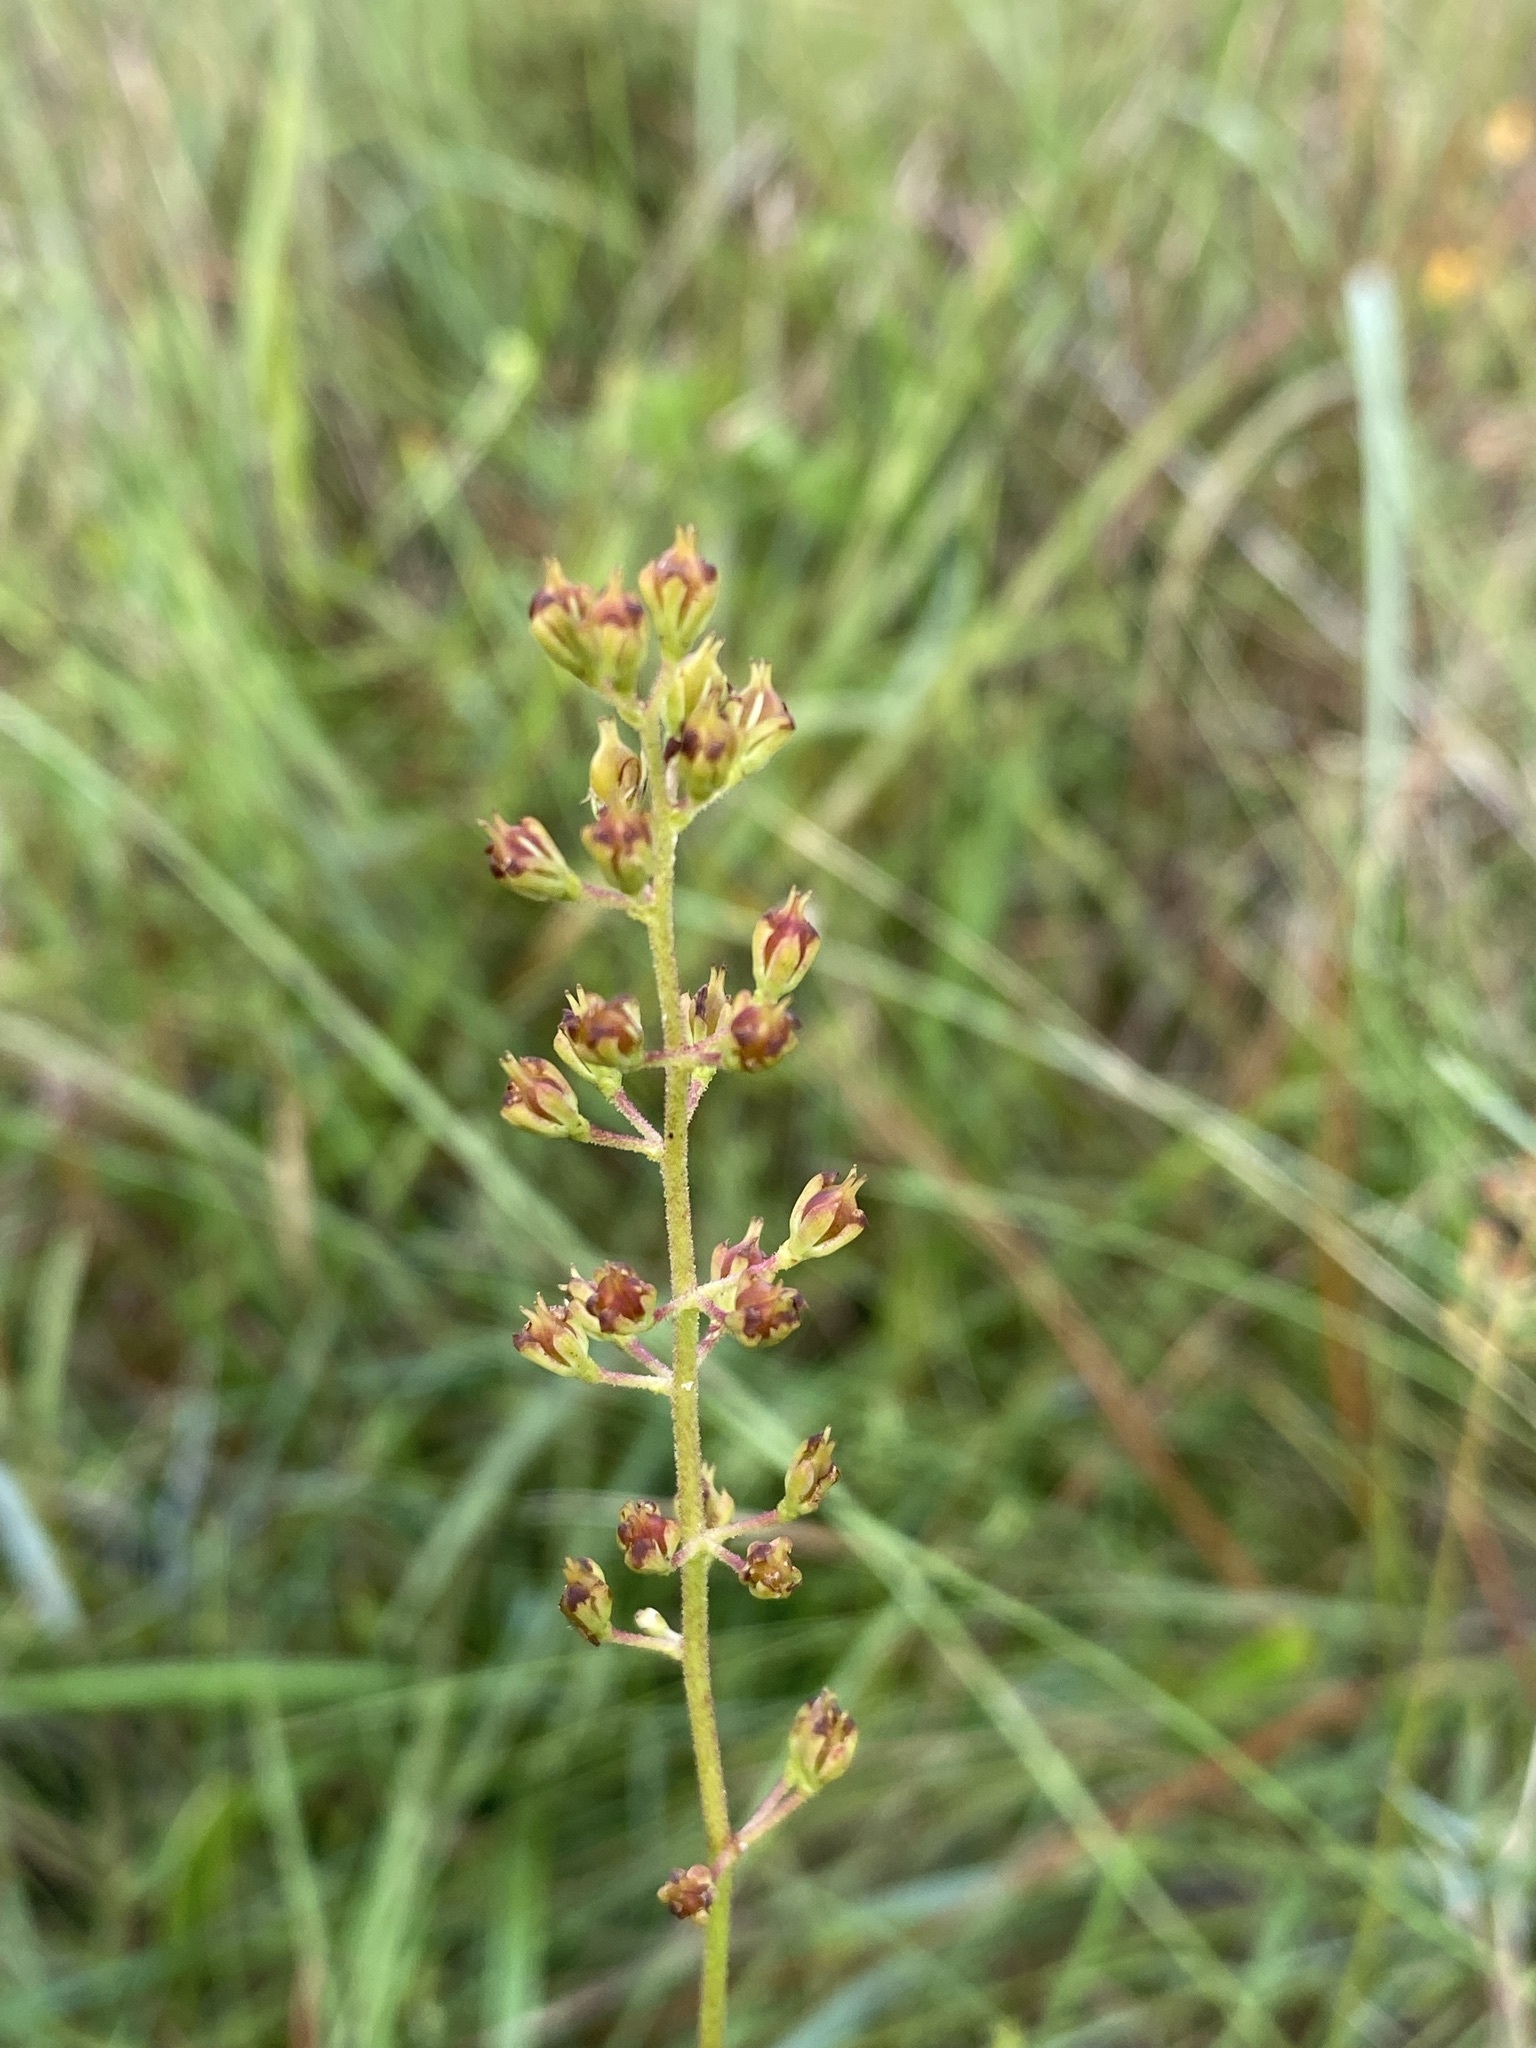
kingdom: Plantae
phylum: Tracheophyta
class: Liliopsida
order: Alismatales
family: Tofieldiaceae
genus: Triantha
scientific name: Triantha racemosa
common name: Coastal false asphodel
